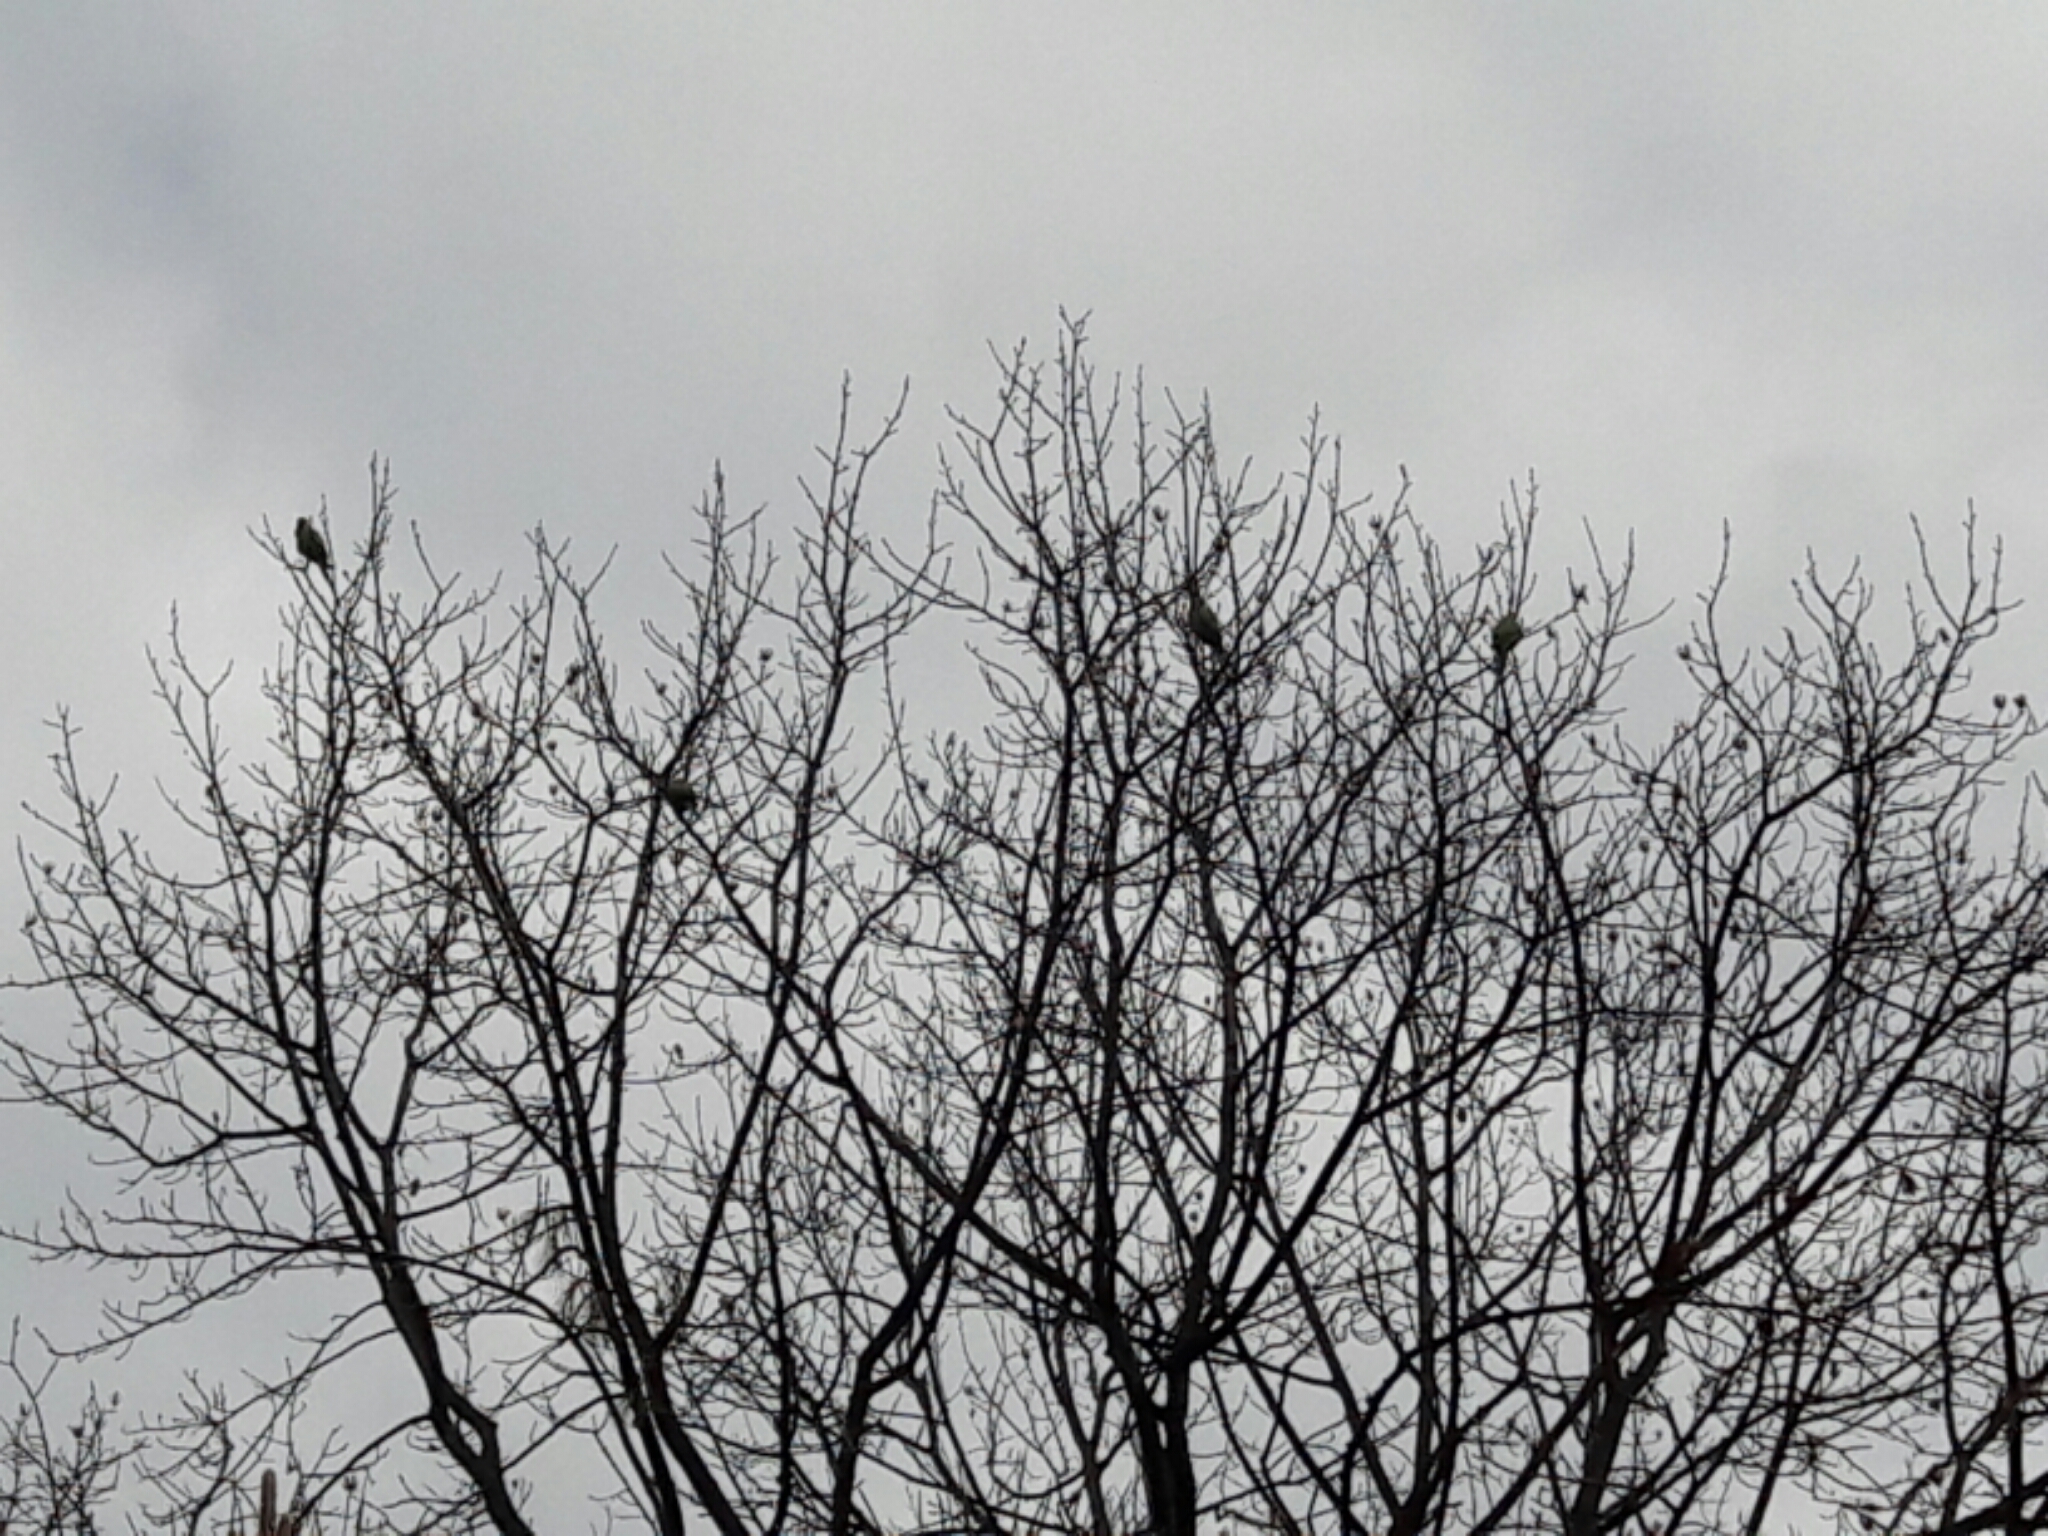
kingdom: Animalia
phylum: Chordata
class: Aves
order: Psittaciformes
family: Psittacidae
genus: Psittacula
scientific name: Psittacula krameri
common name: Rose-ringed parakeet
